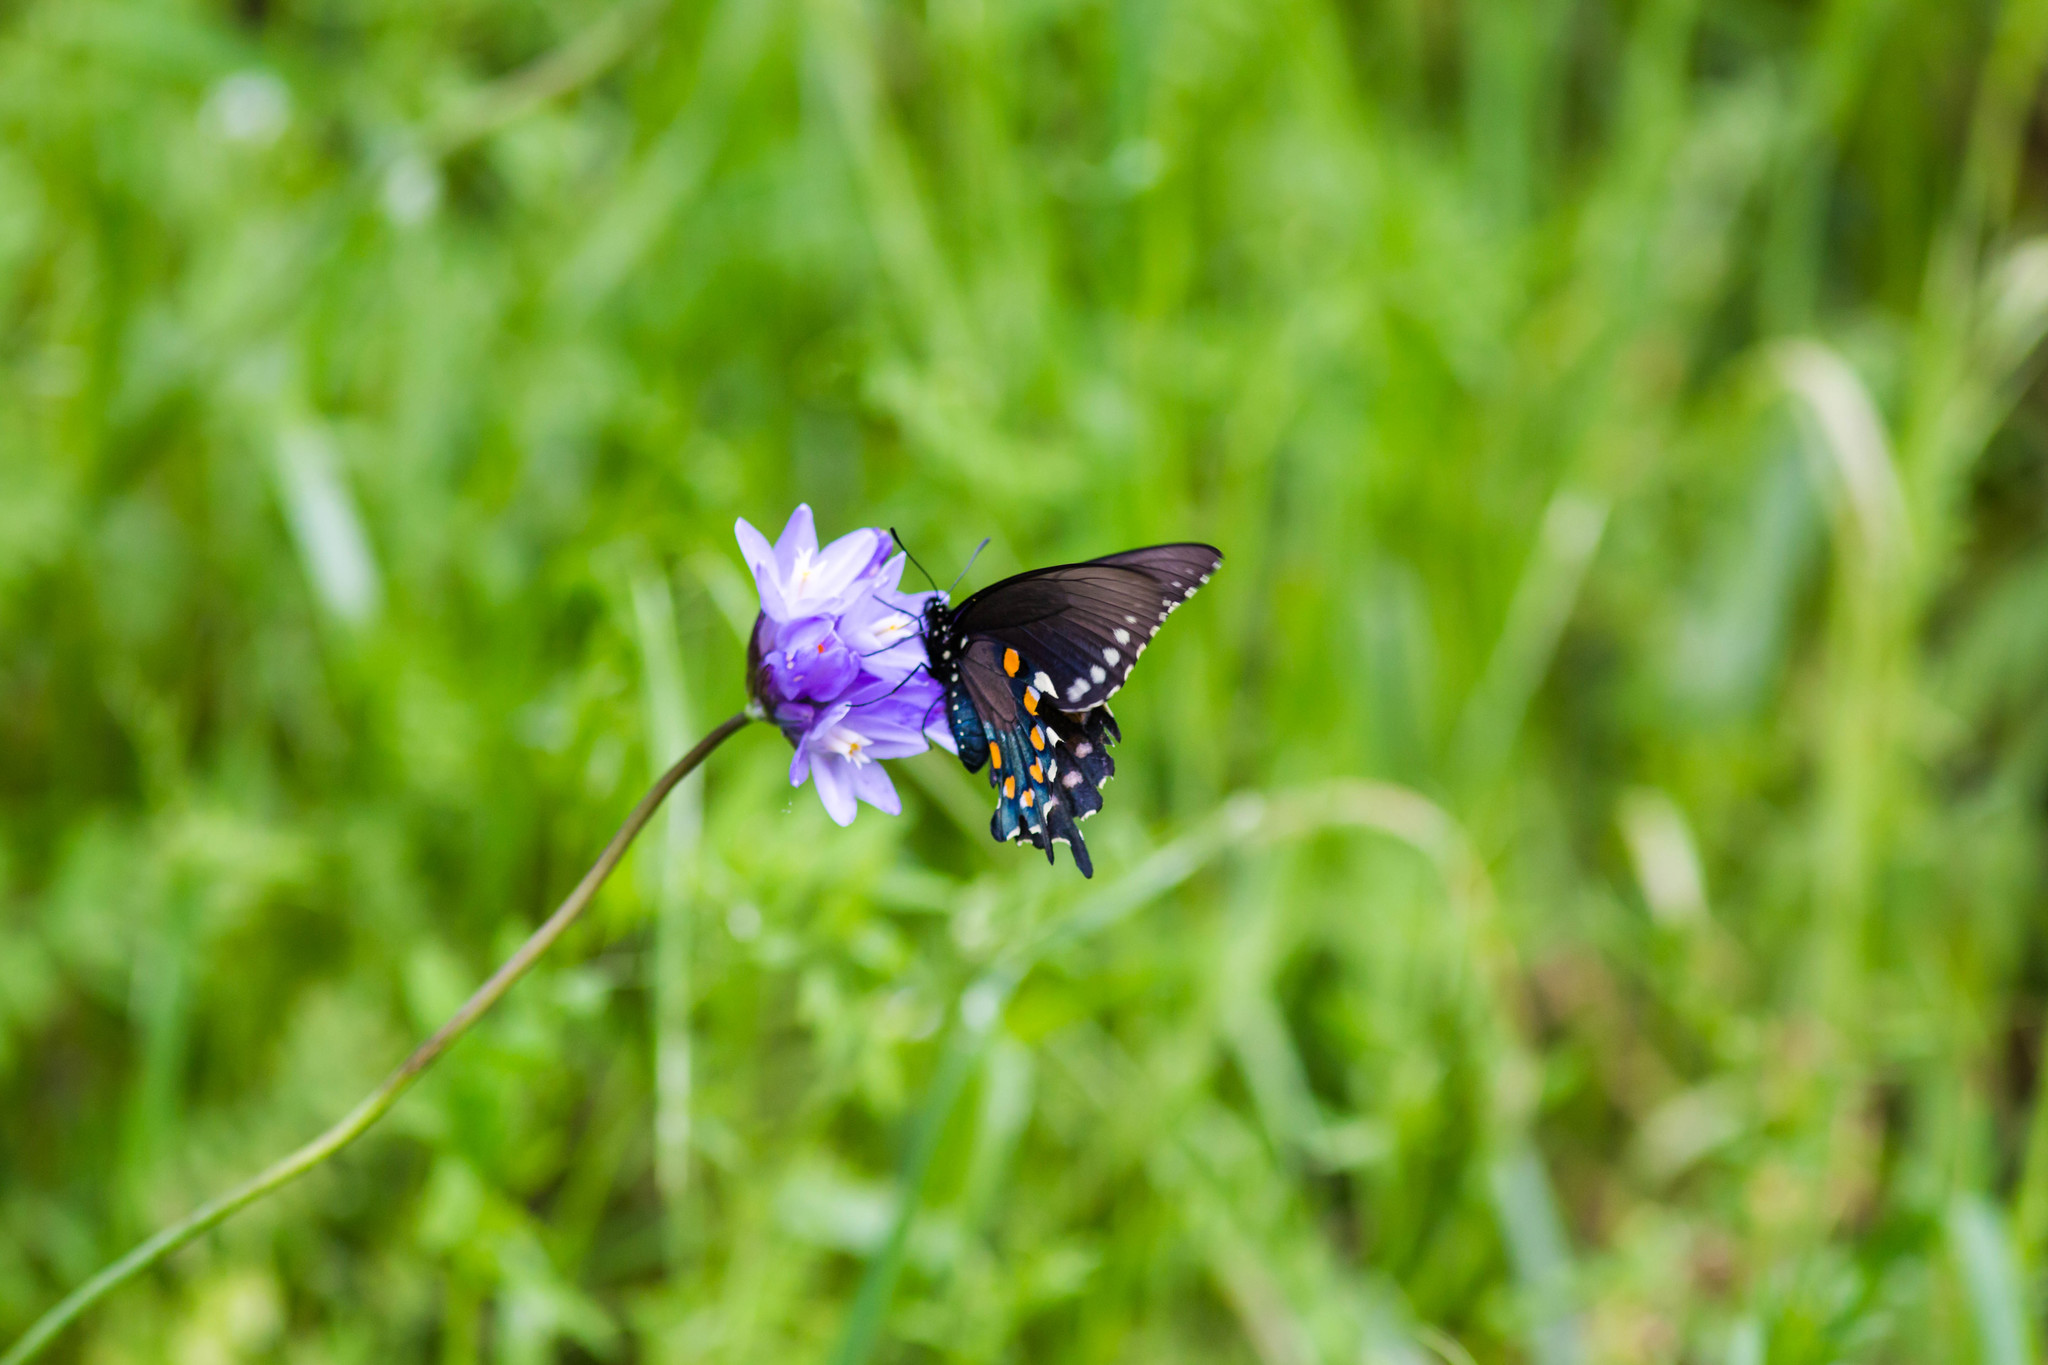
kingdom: Animalia
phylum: Arthropoda
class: Insecta
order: Lepidoptera
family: Papilionidae
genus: Battus
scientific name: Battus philenor
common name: Pipevine swallowtail
